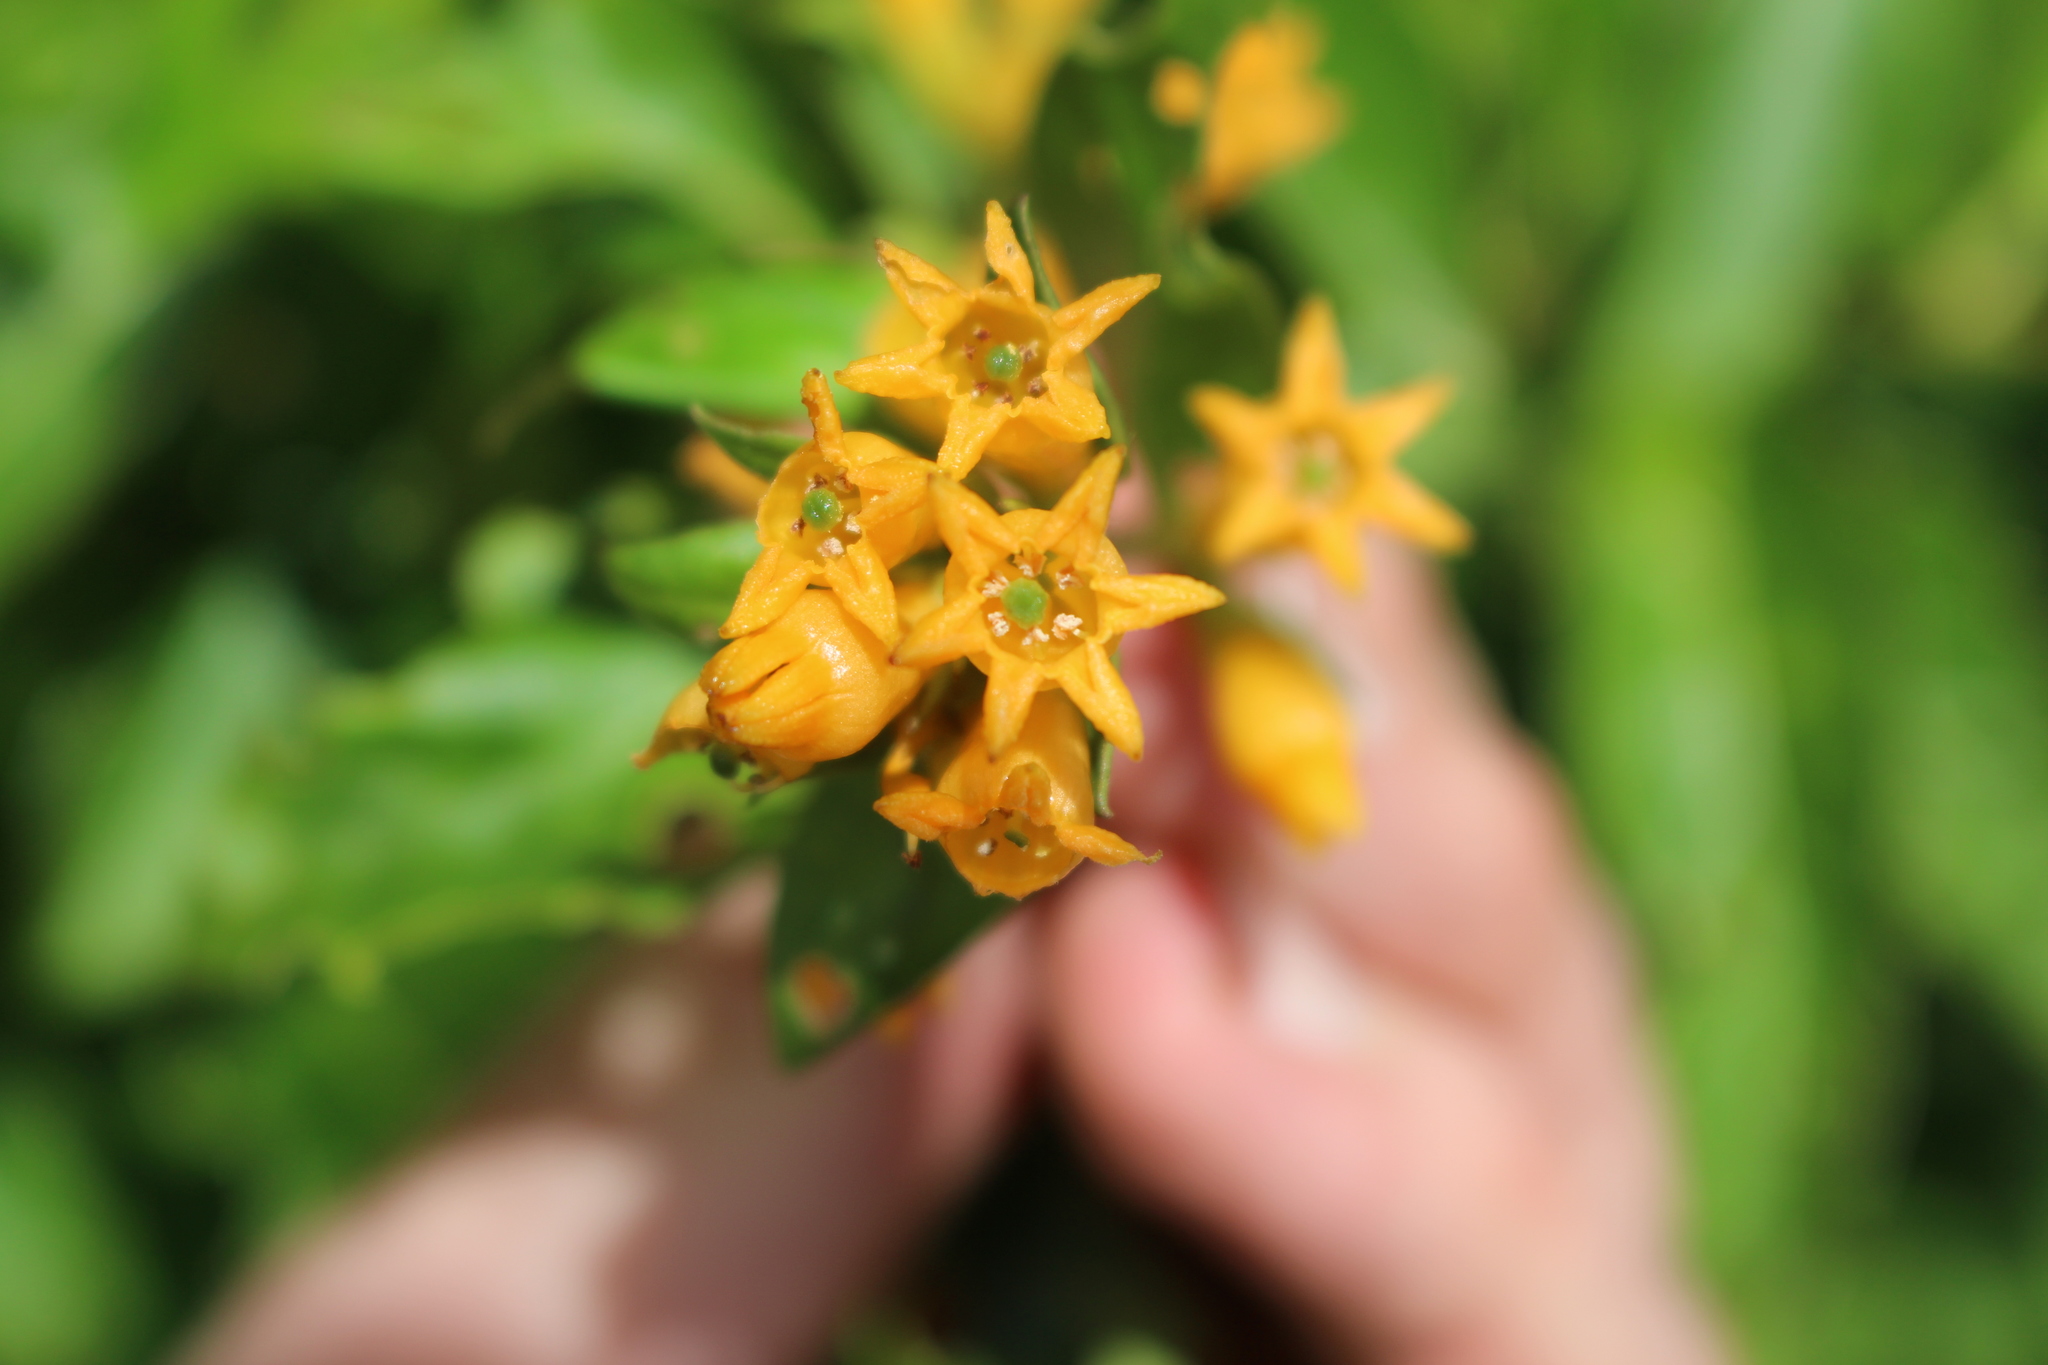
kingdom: Plantae
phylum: Tracheophyta
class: Magnoliopsida
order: Solanales
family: Solanaceae
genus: Cestrum
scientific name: Cestrum aurantiacum
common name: Orange cestrum
